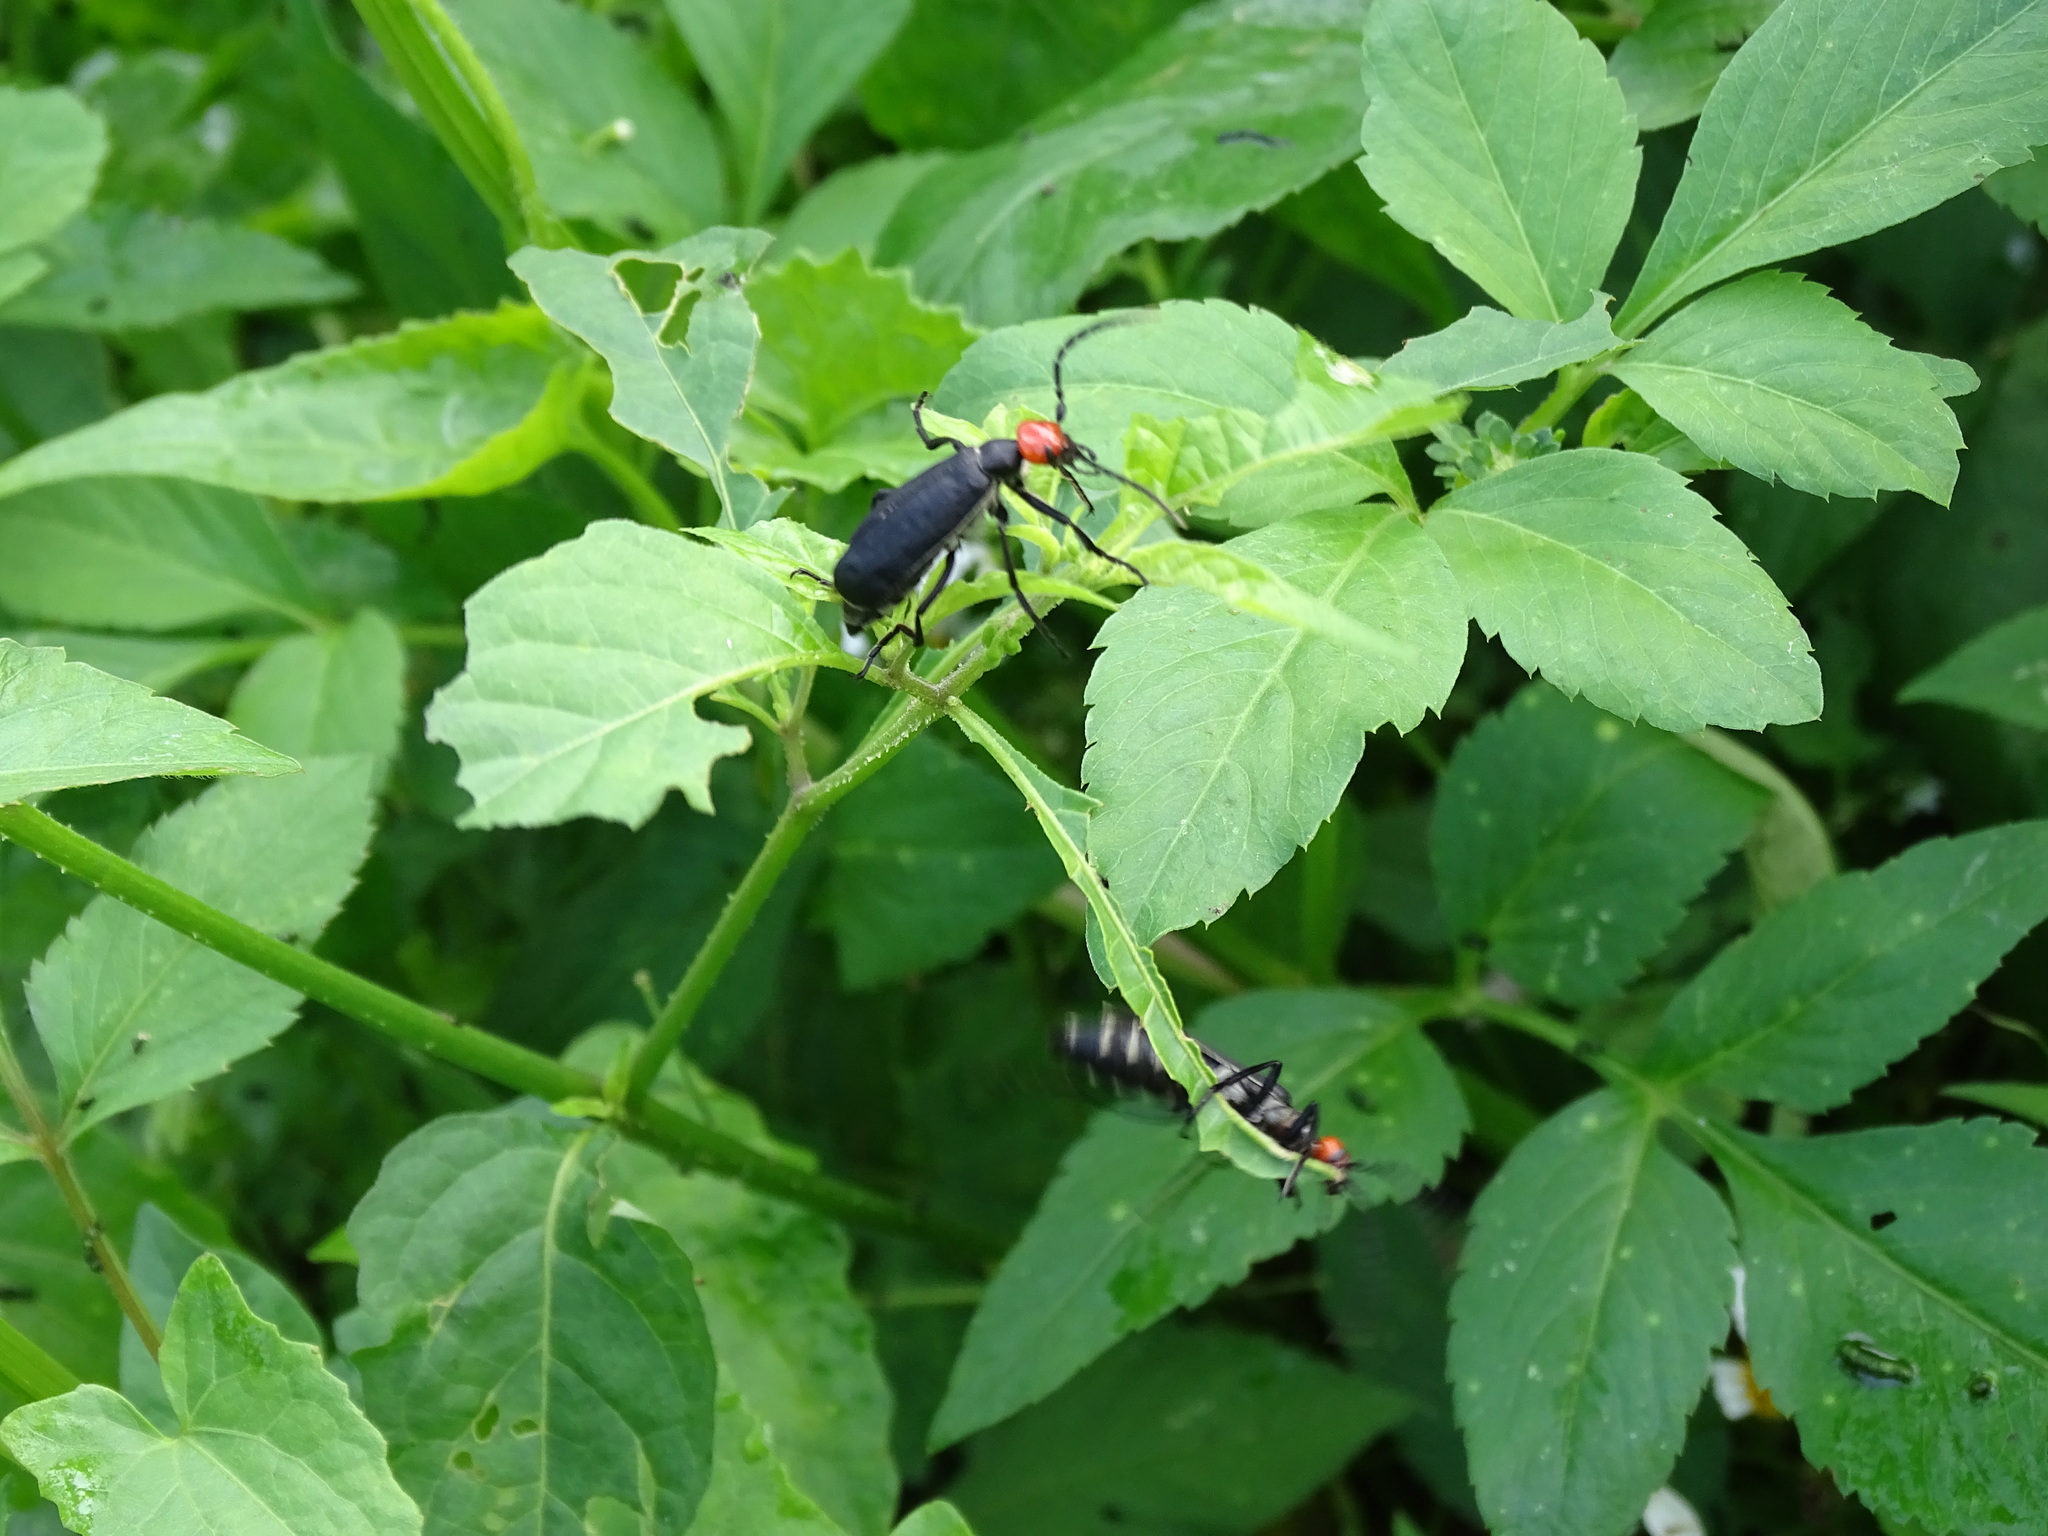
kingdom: Animalia
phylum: Arthropoda
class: Insecta
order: Coleoptera
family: Meloidae
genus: Epicauta
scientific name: Epicauta hirticornis
